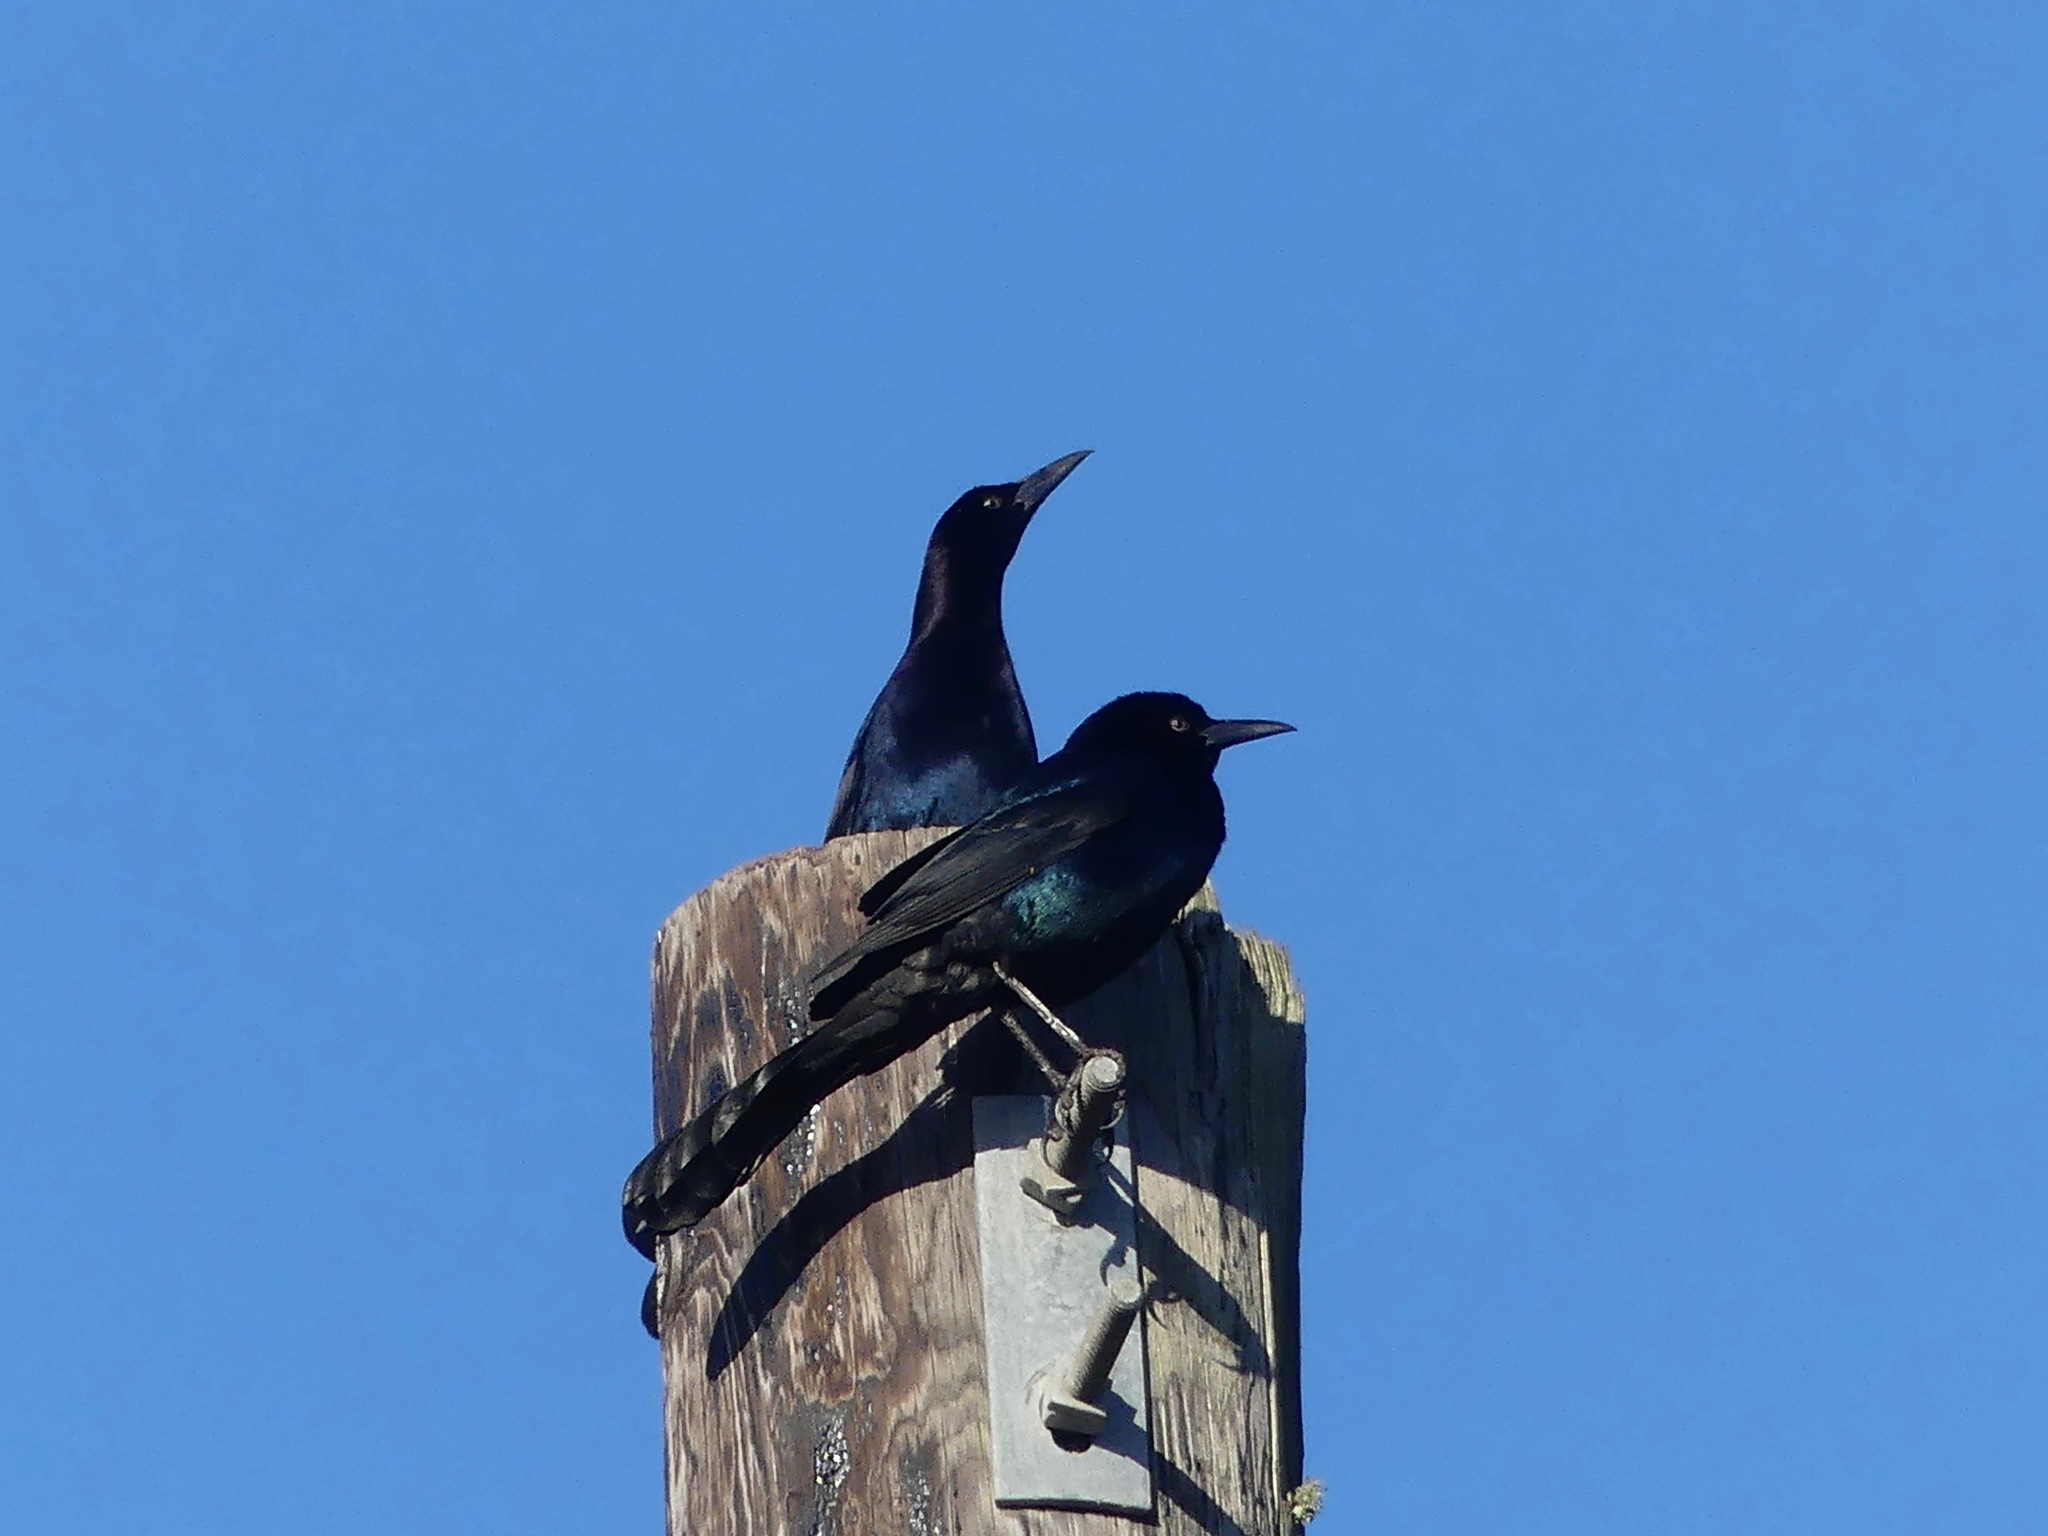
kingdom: Animalia
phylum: Chordata
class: Aves
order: Passeriformes
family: Icteridae
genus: Quiscalus
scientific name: Quiscalus major
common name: Boat-tailed grackle
